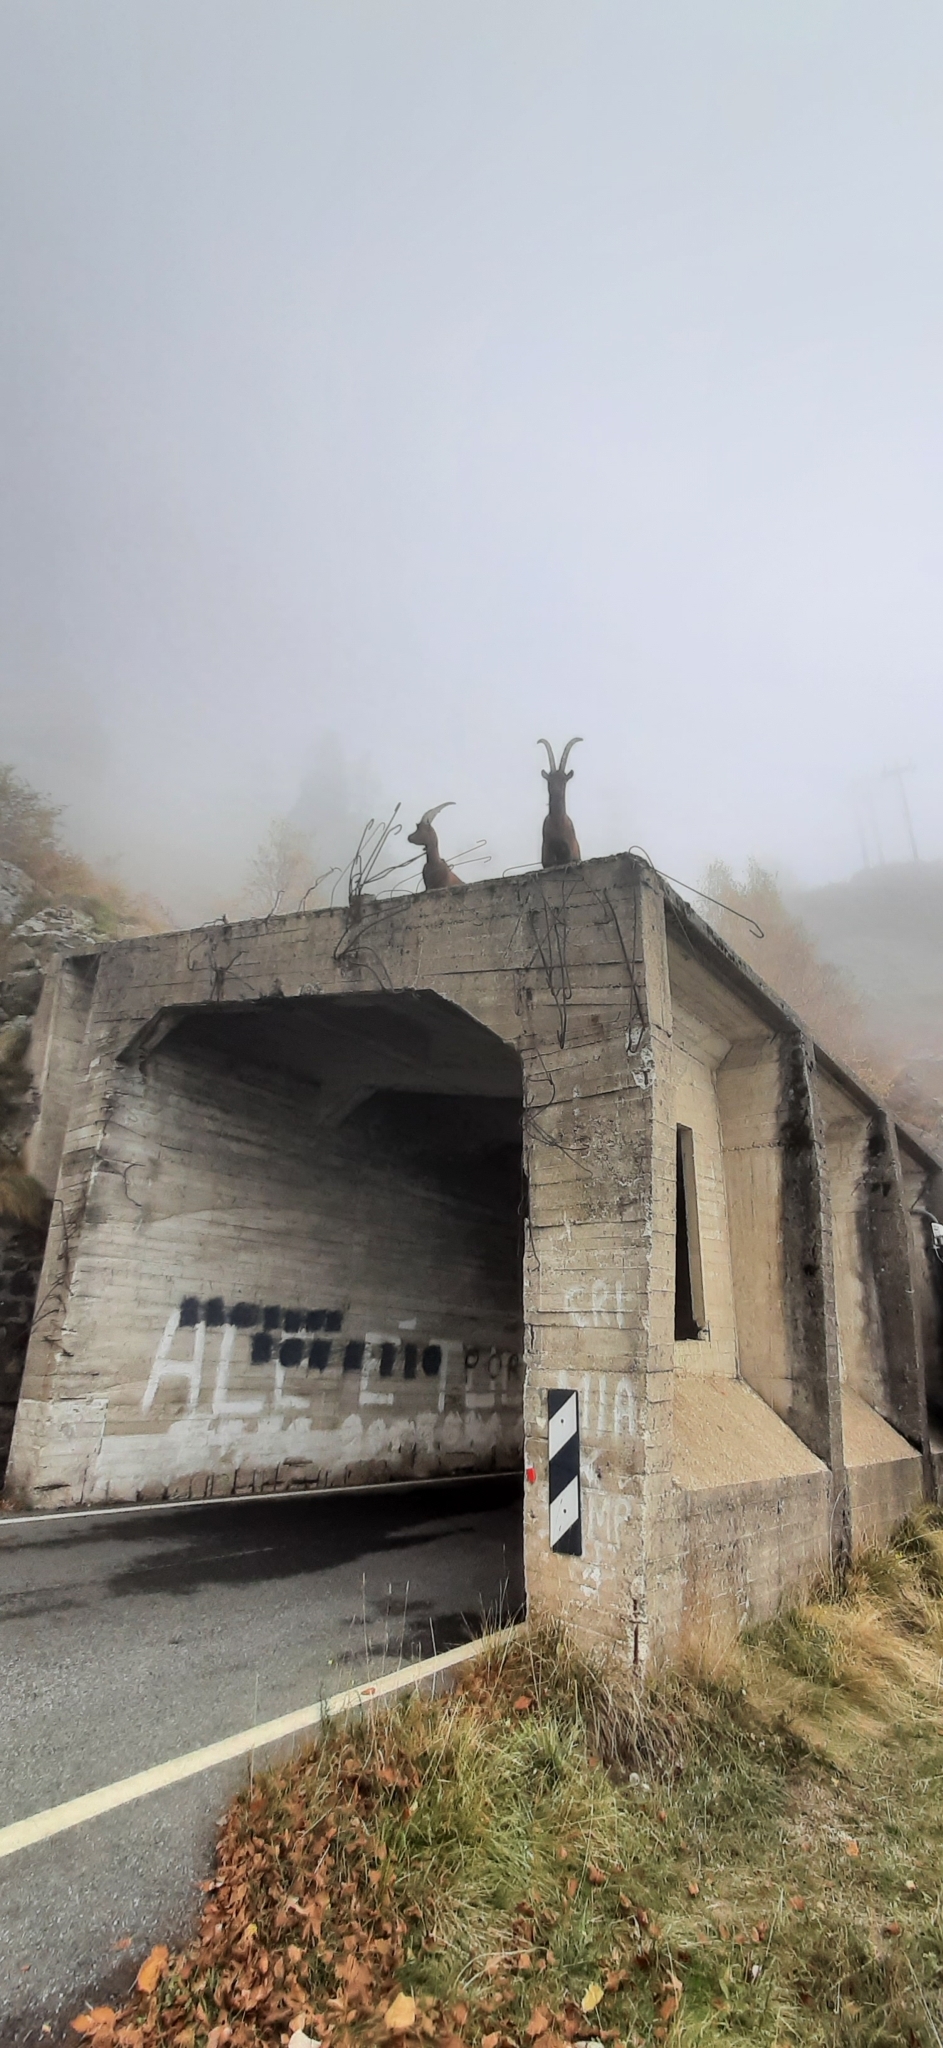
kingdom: Animalia
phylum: Chordata
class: Mammalia
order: Artiodactyla
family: Bovidae
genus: Capra
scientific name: Capra hircus
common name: Domestic goat
